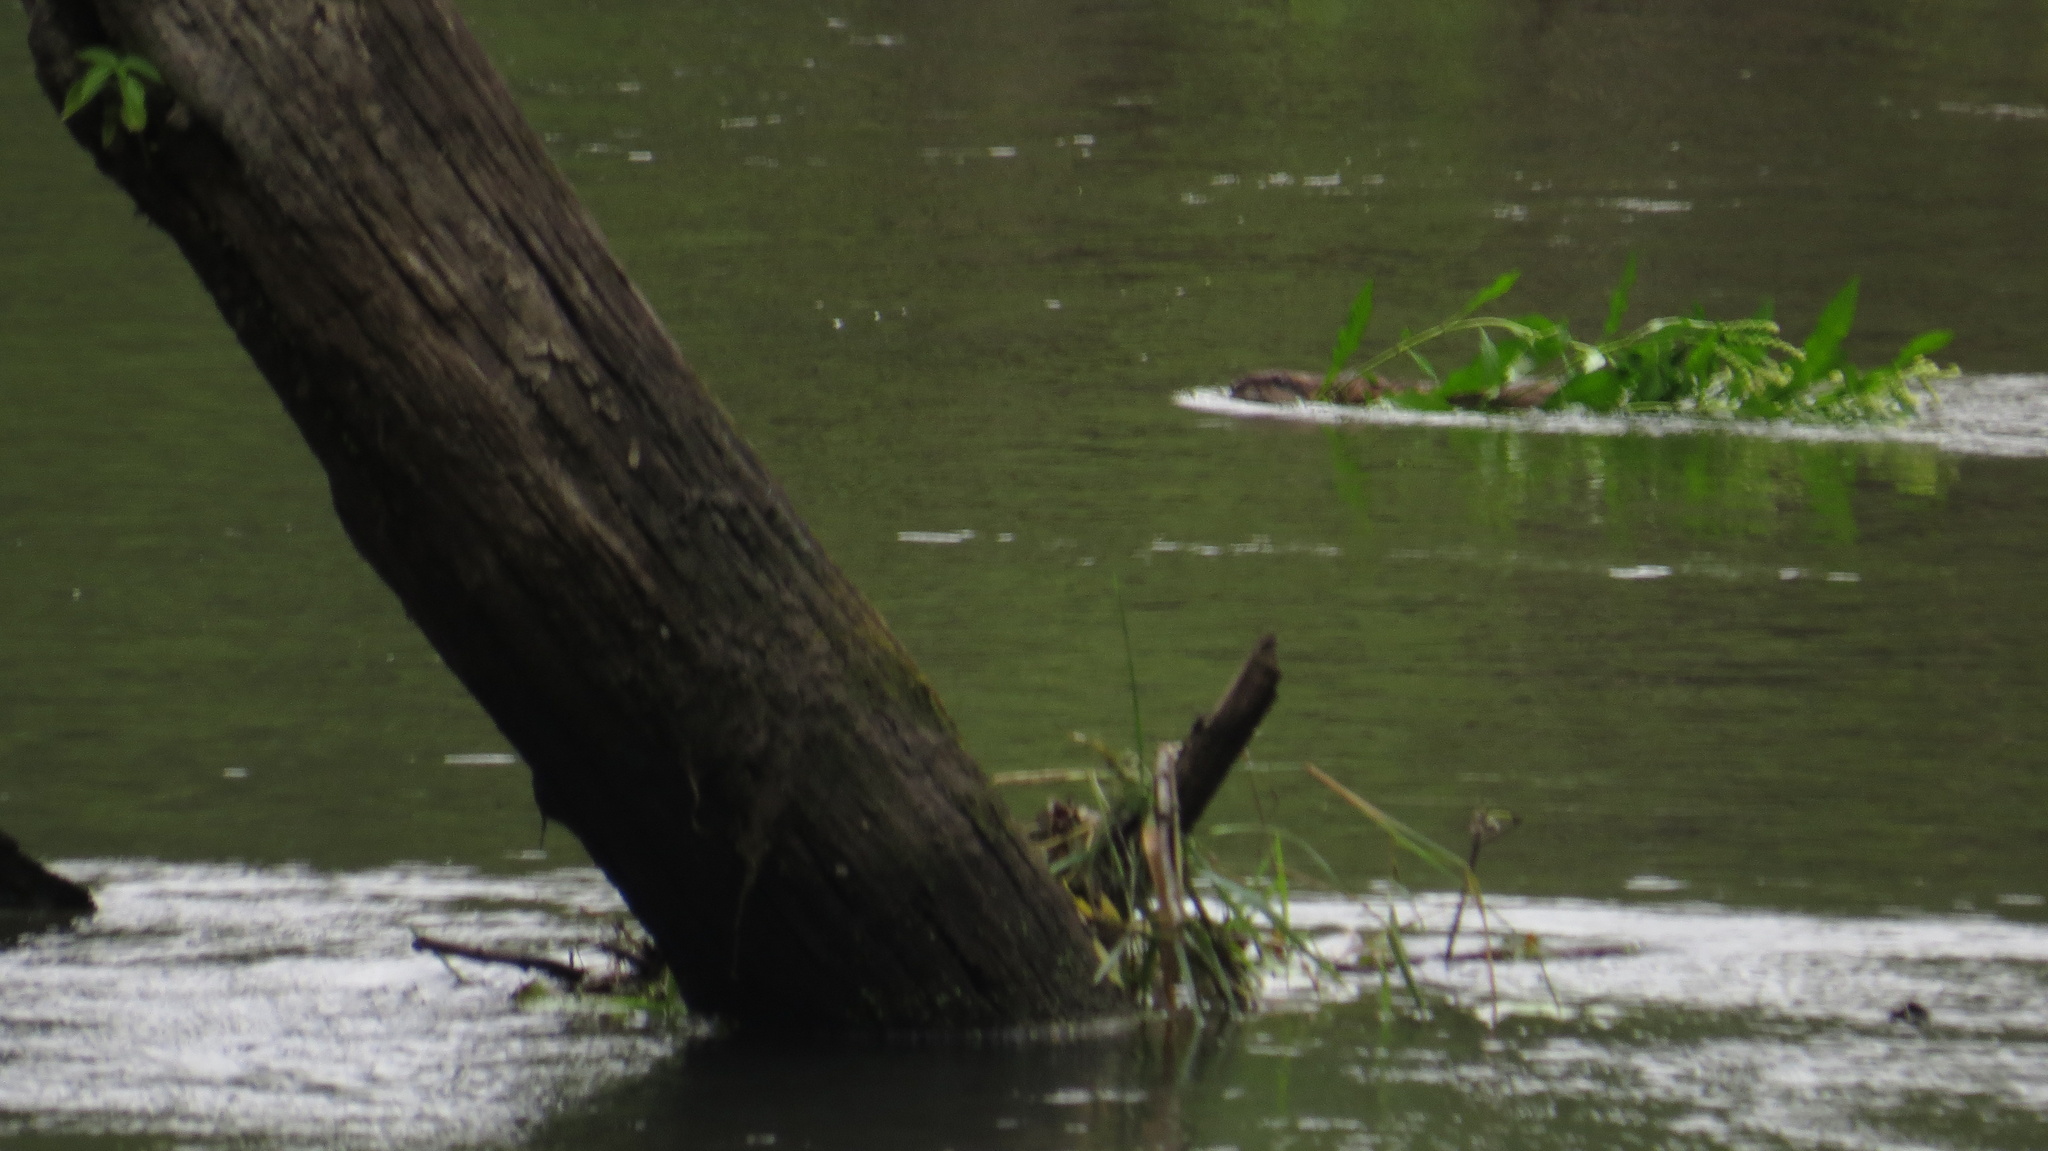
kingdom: Animalia
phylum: Chordata
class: Mammalia
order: Rodentia
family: Castoridae
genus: Castor
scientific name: Castor canadensis
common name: American beaver
